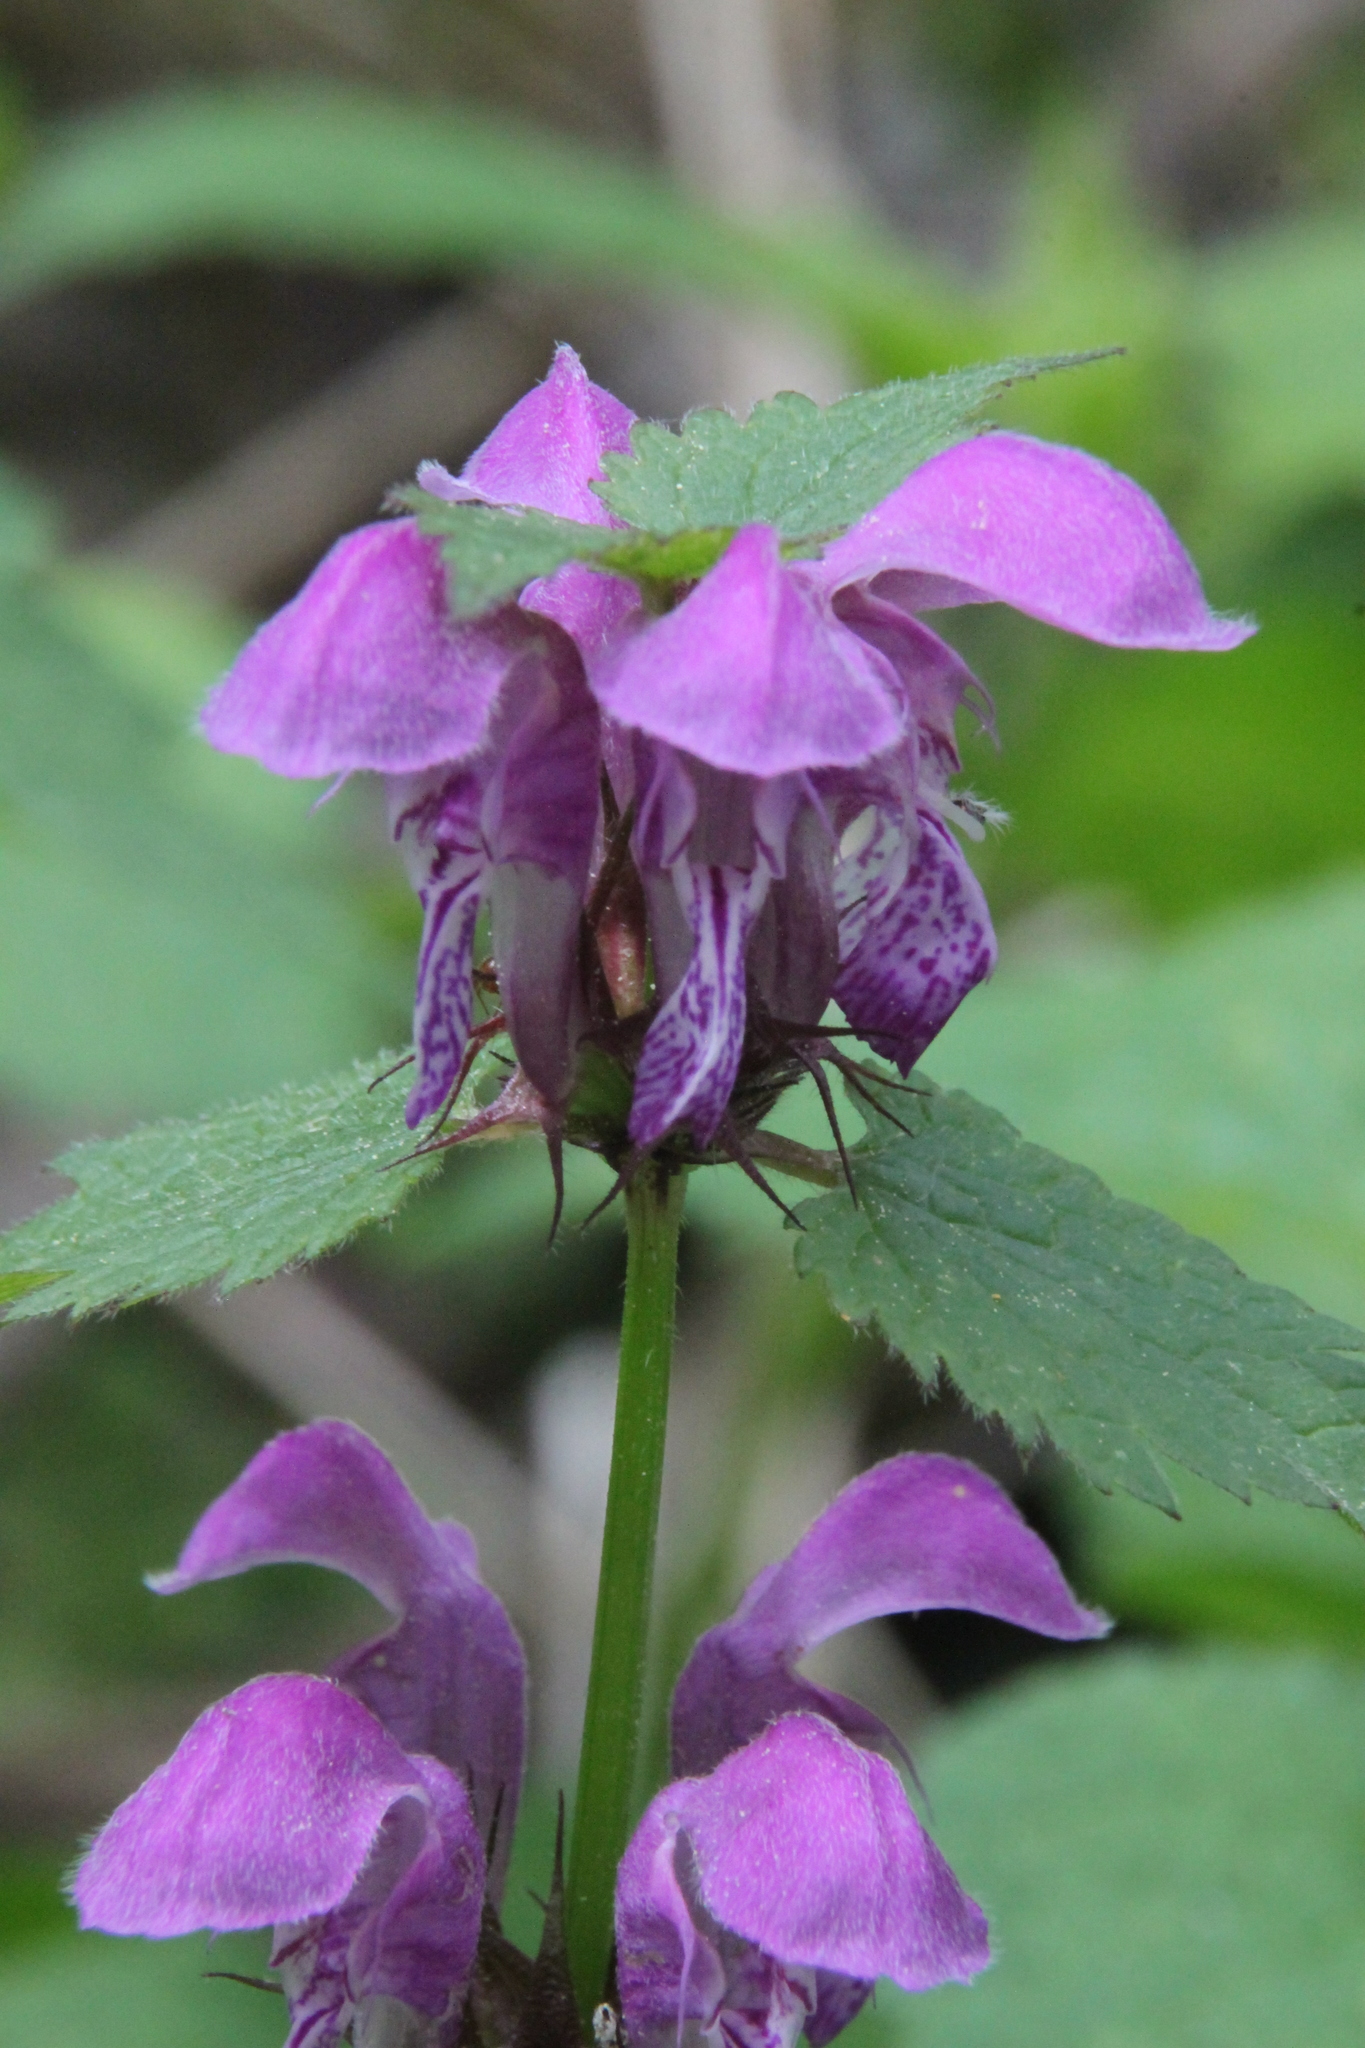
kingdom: Plantae
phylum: Tracheophyta
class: Magnoliopsida
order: Lamiales
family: Lamiaceae
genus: Lamium
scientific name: Lamium maculatum
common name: Spotted dead-nettle
